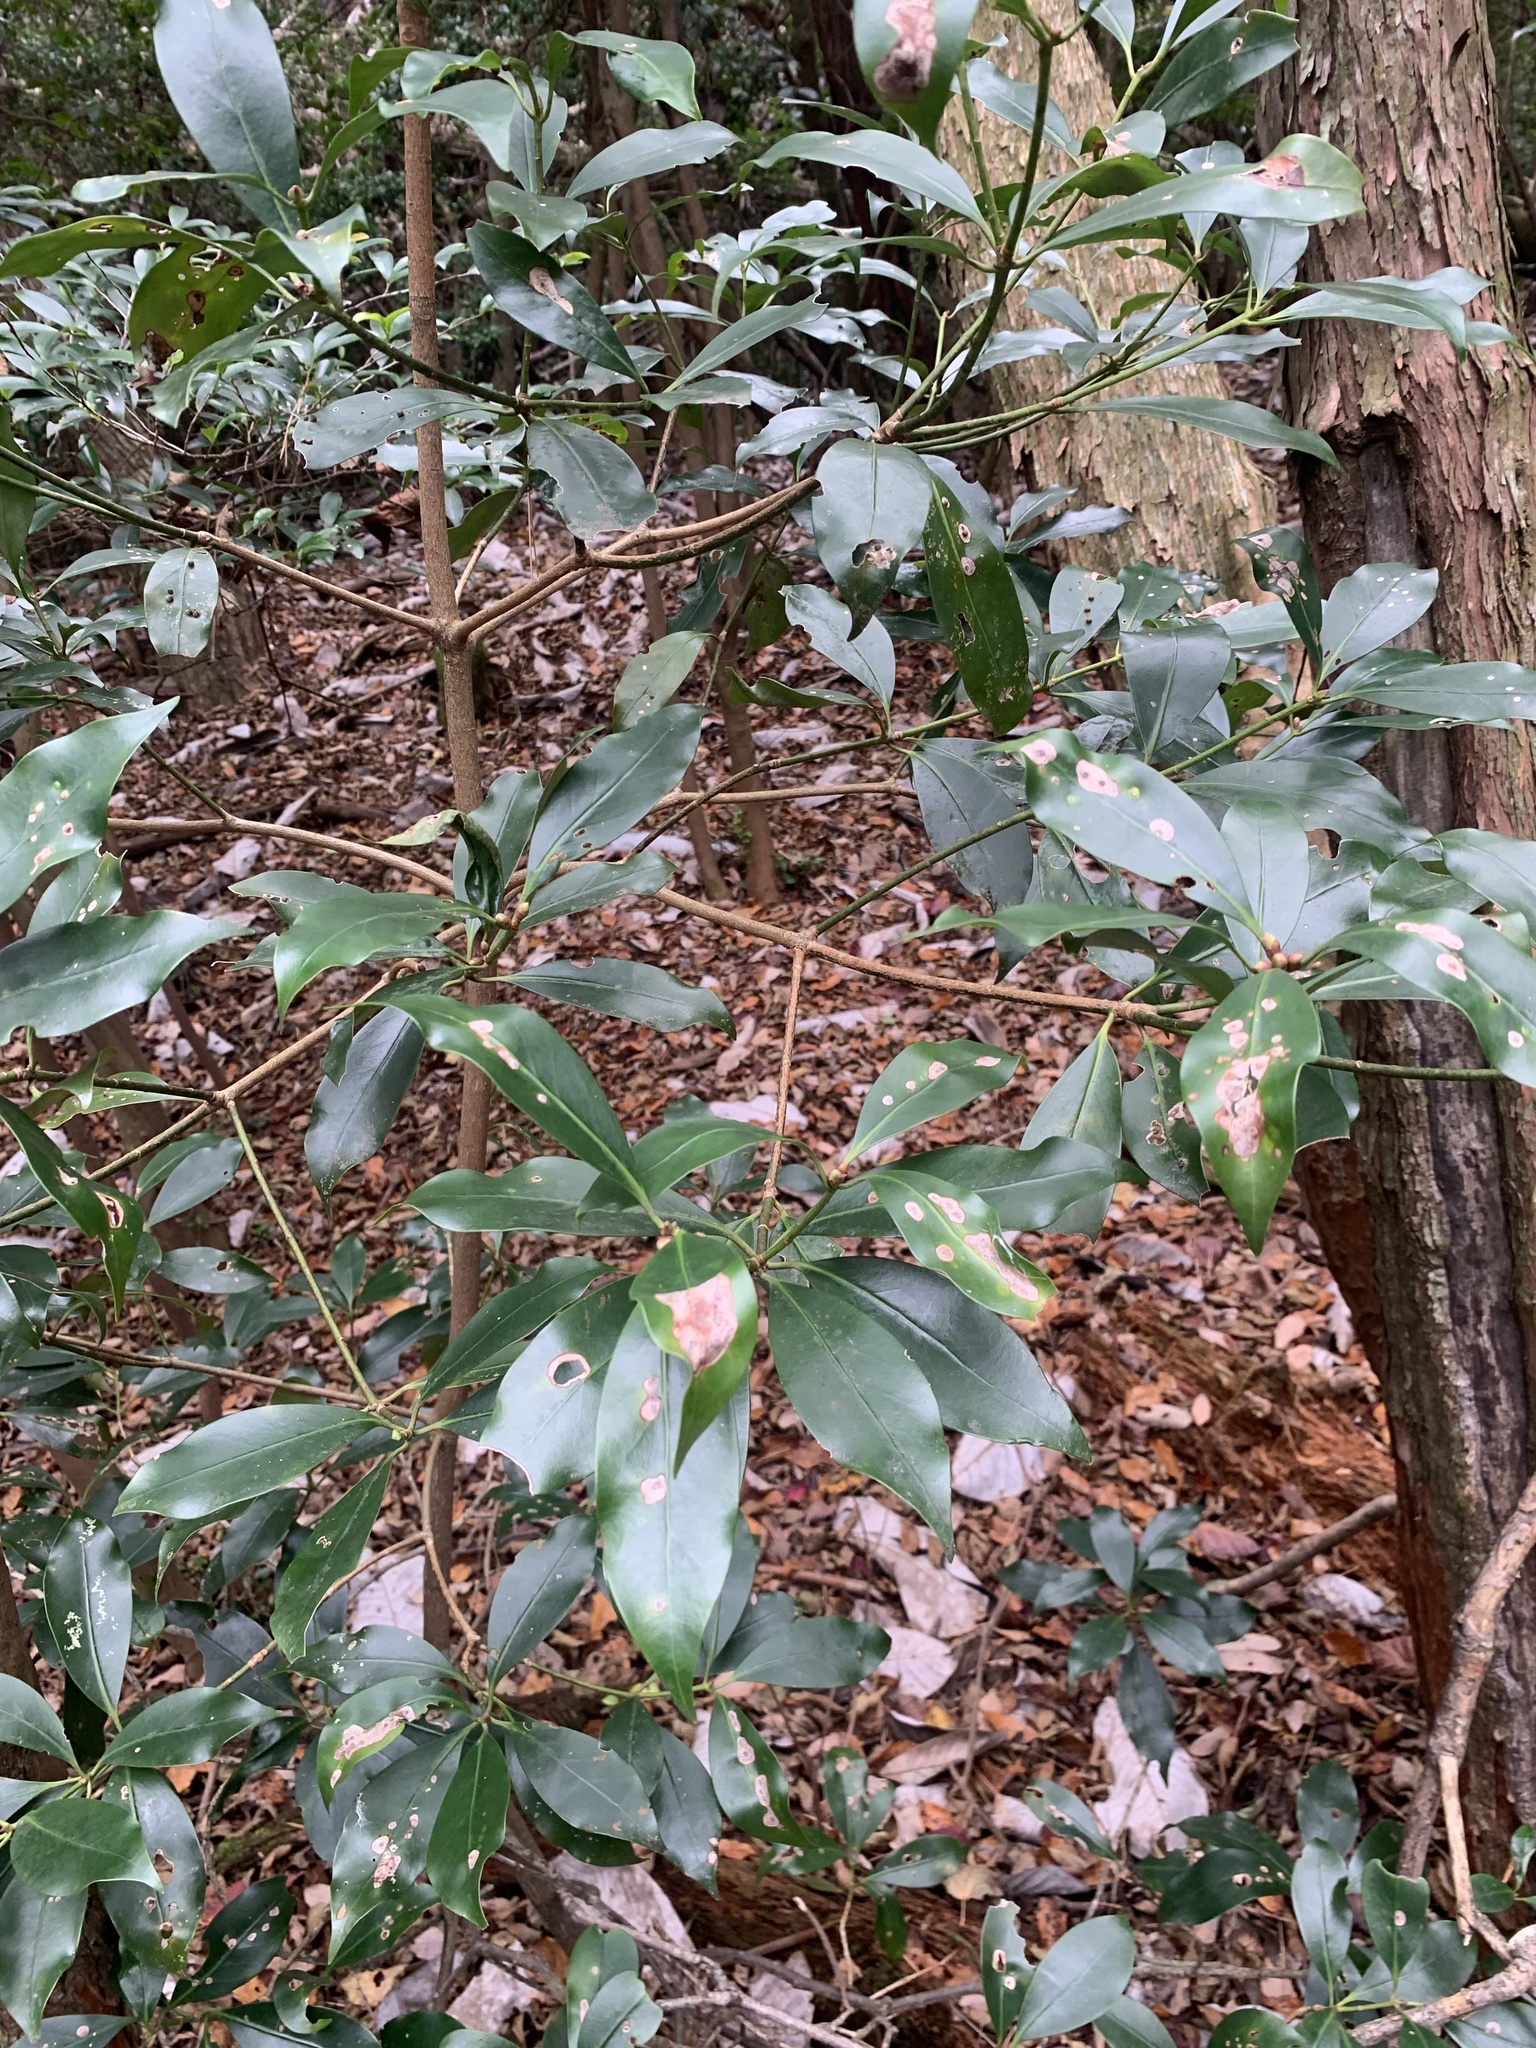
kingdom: Plantae
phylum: Tracheophyta
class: Magnoliopsida
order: Austrobaileyales
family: Schisandraceae
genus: Illicium
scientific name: Illicium anisatum
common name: Sacred anisetree
